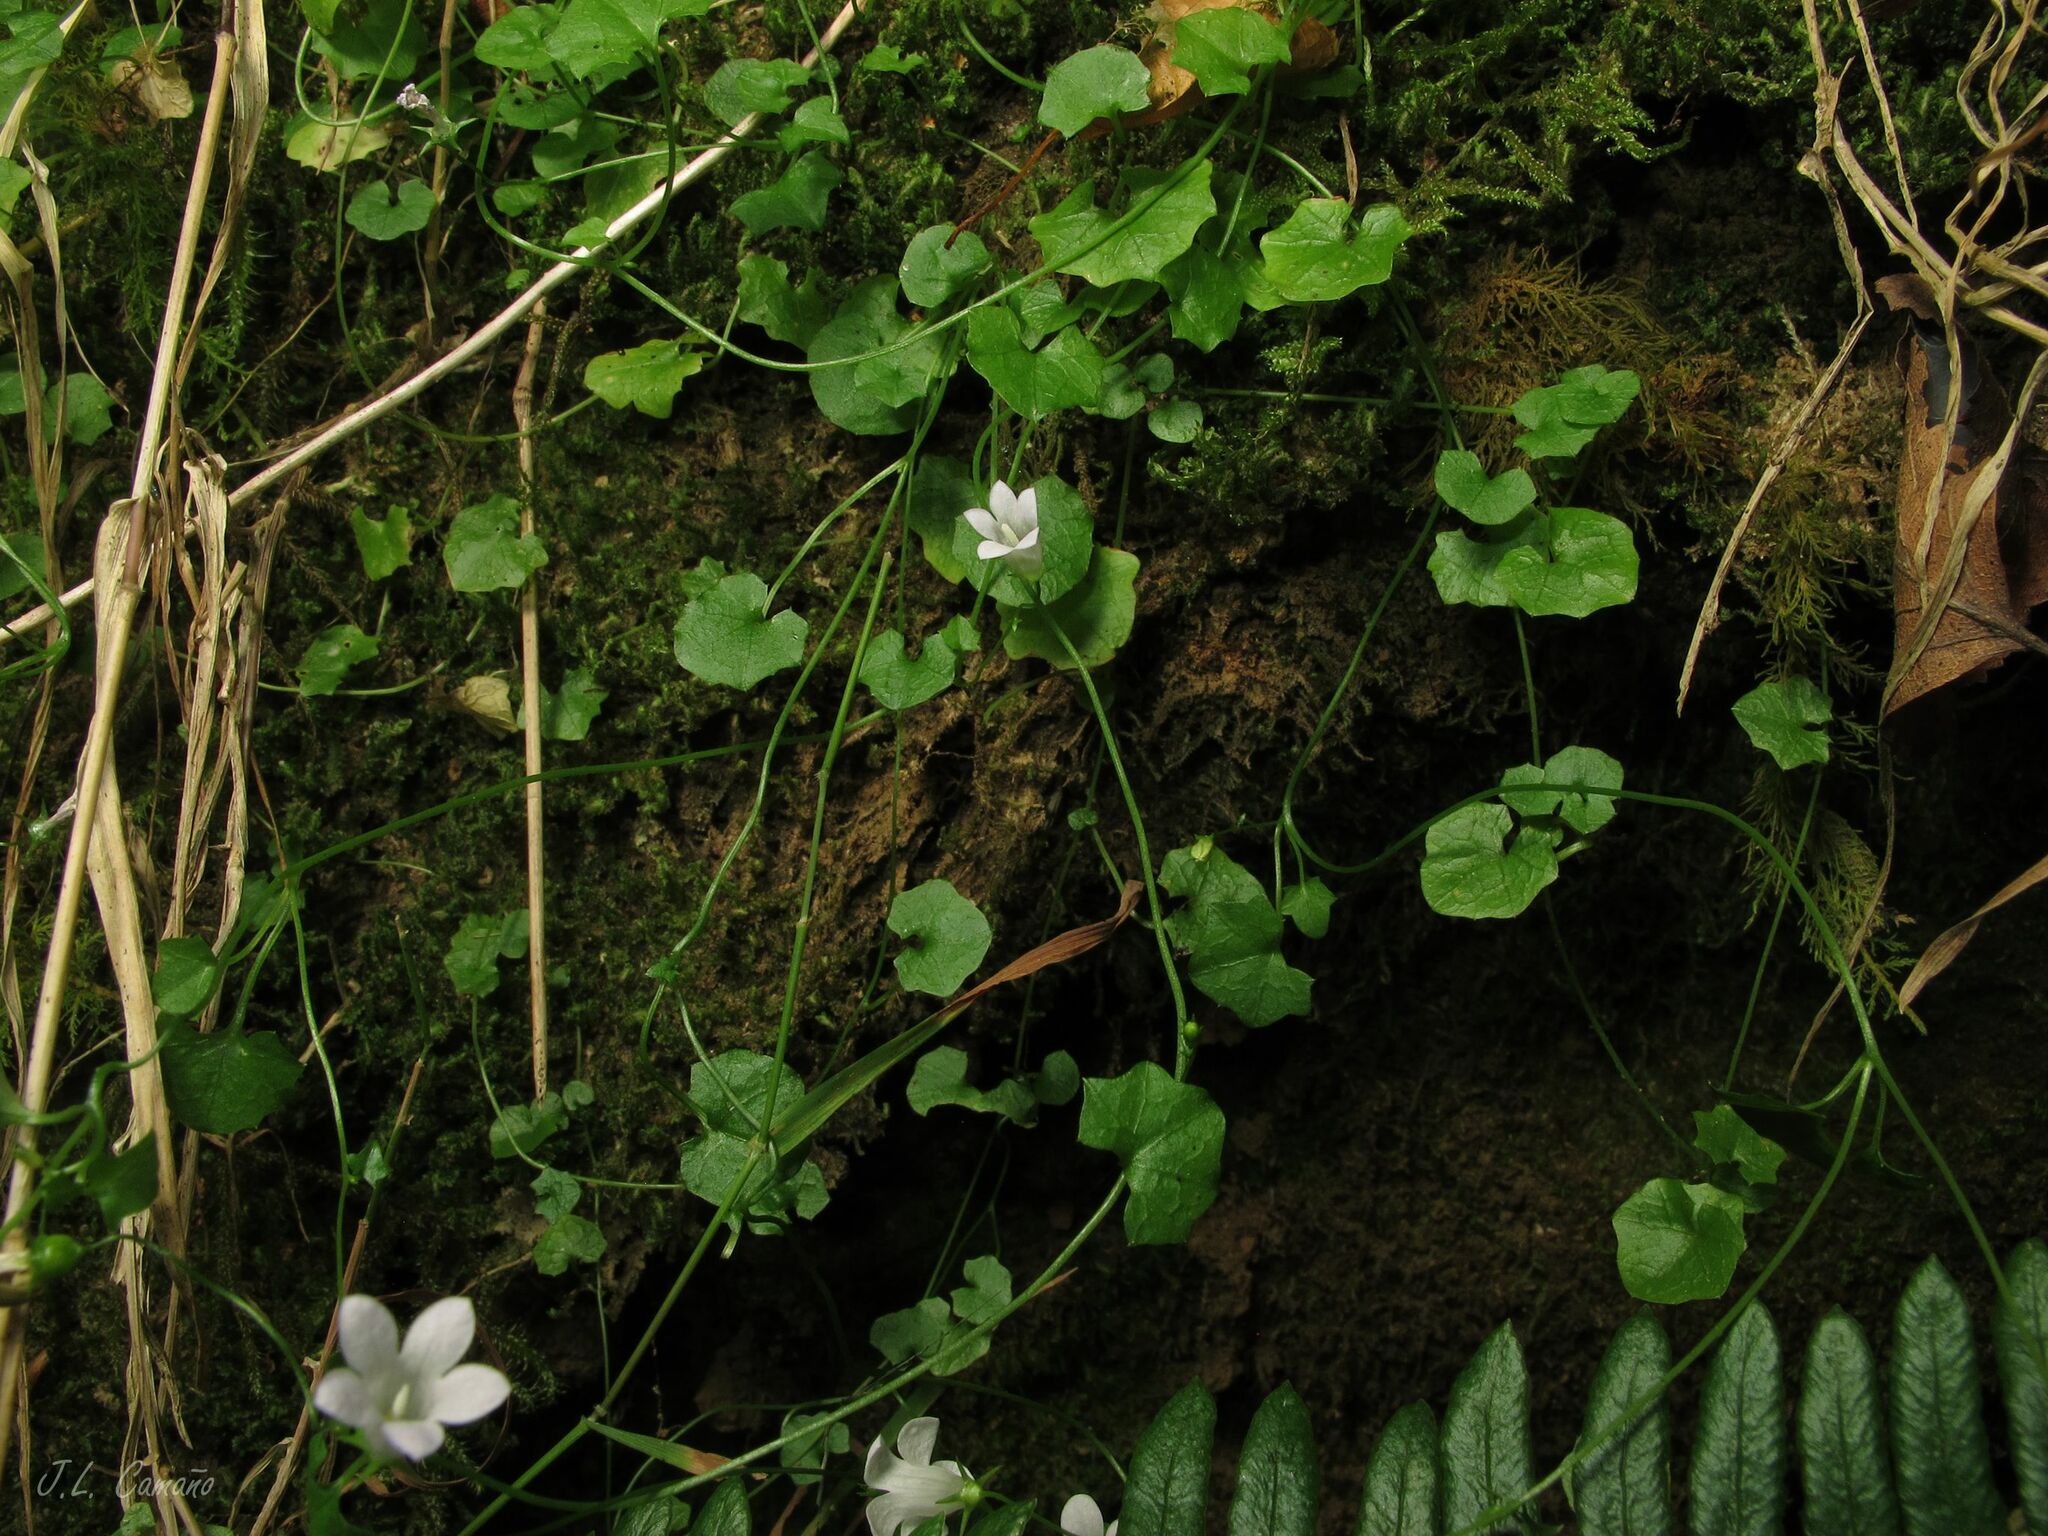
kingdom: Plantae
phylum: Tracheophyta
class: Magnoliopsida
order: Asterales
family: Campanulaceae
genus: Hesperocodon
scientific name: Hesperocodon hederaceus
